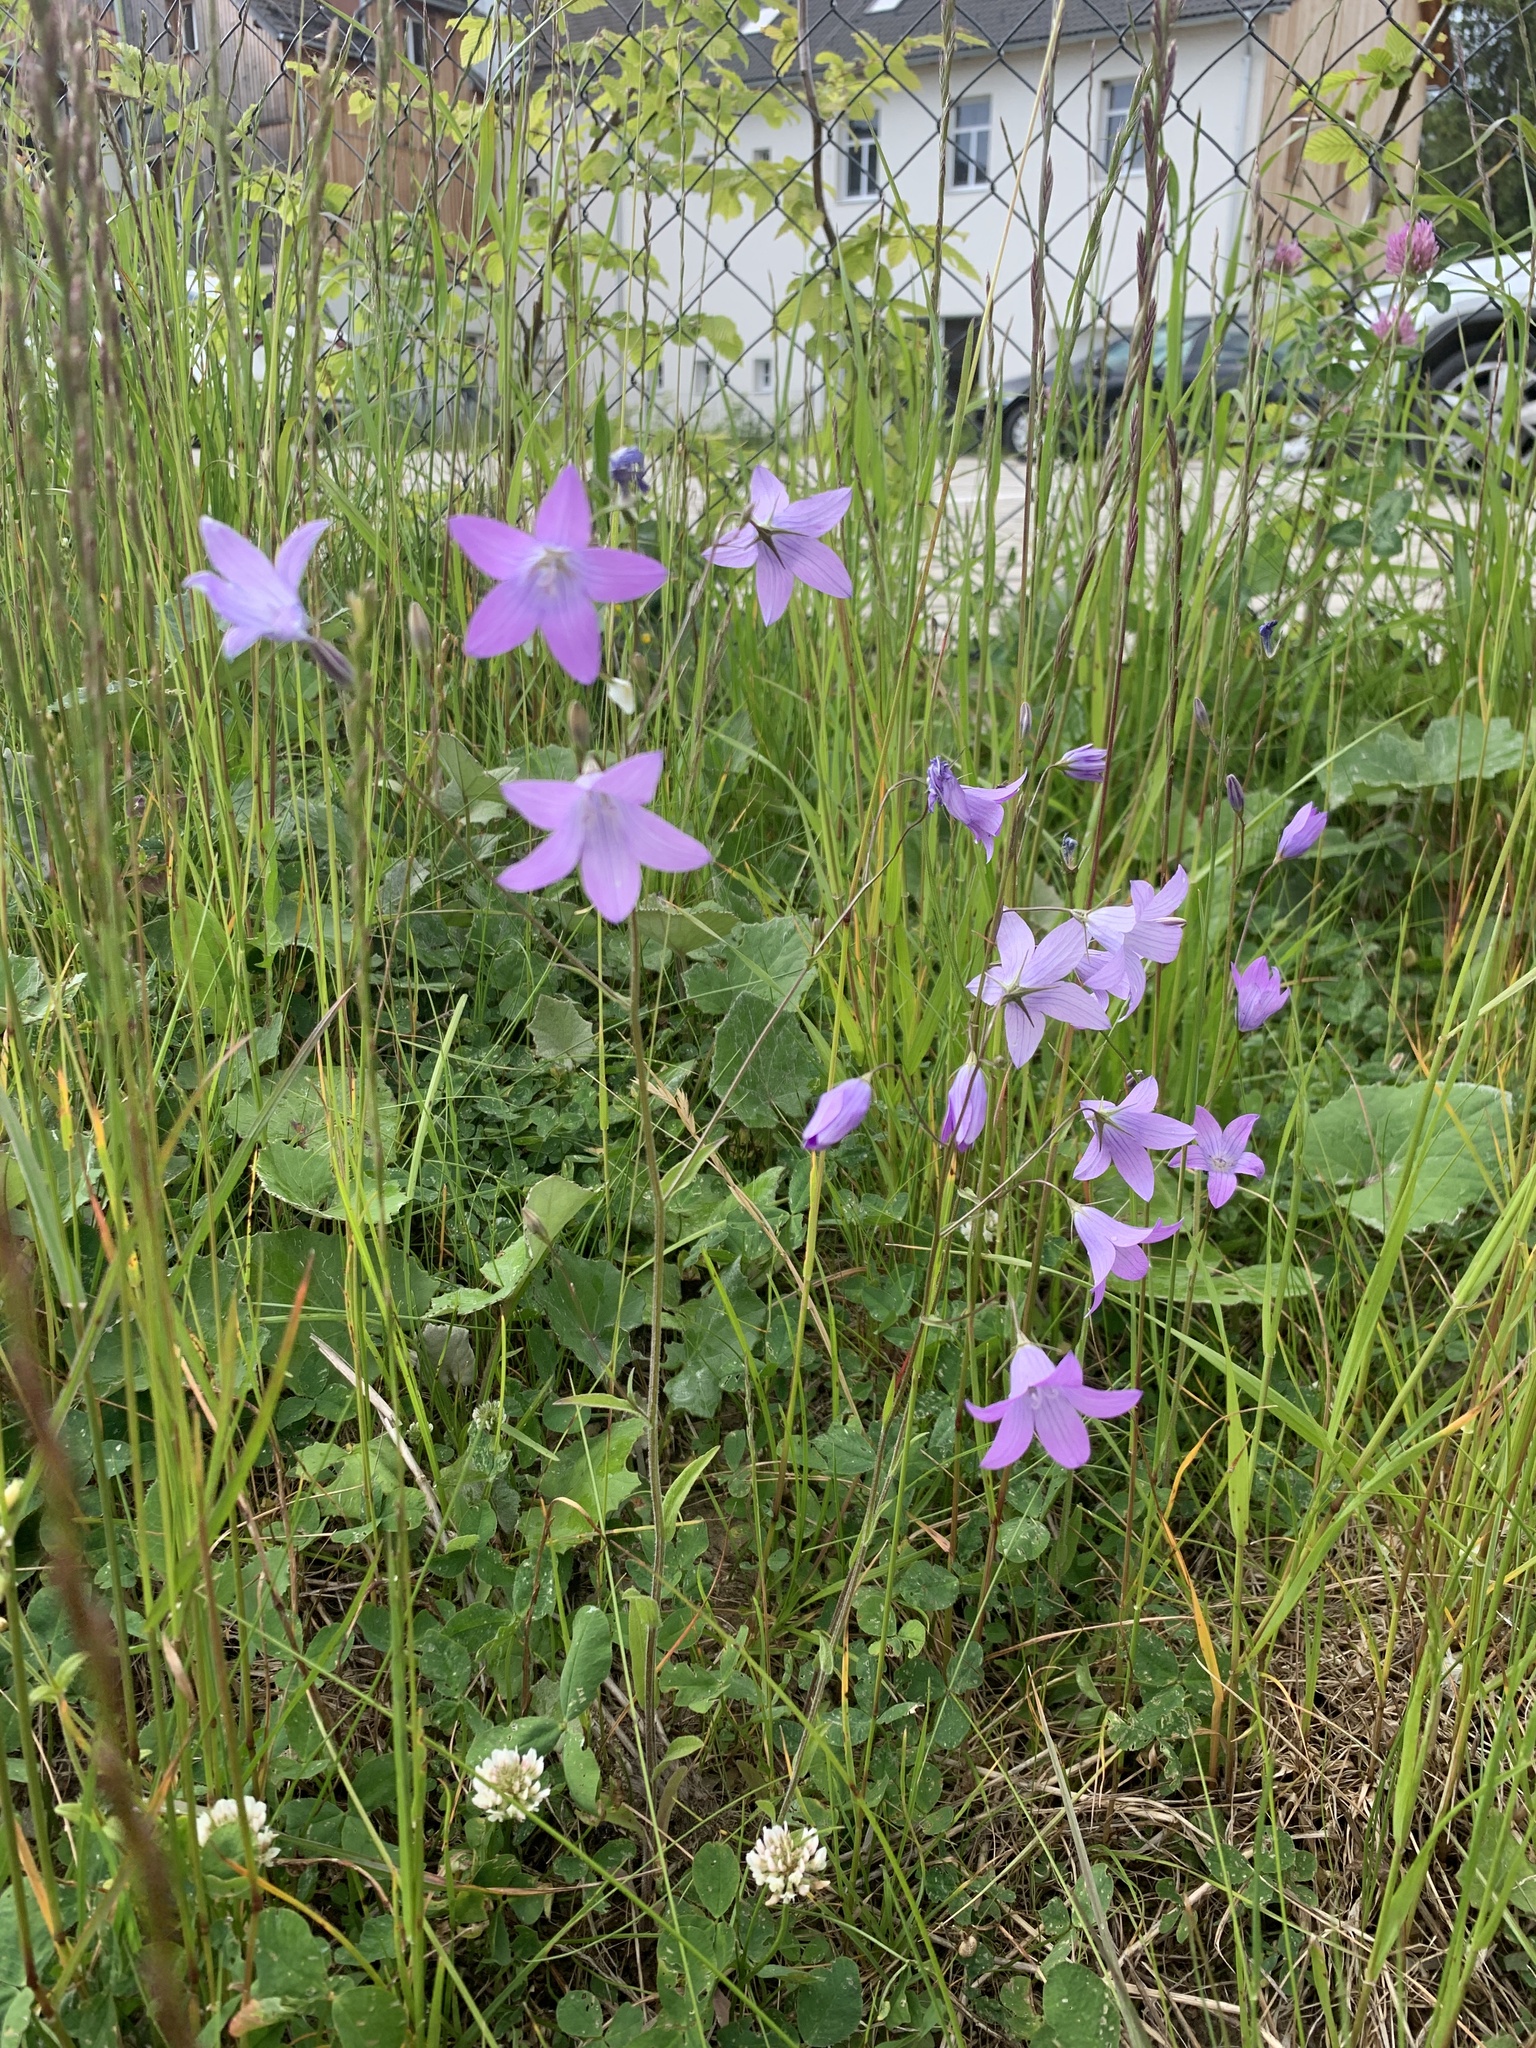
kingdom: Plantae
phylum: Tracheophyta
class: Magnoliopsida
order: Asterales
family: Campanulaceae
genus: Campanula
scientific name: Campanula patula
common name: Spreading bellflower
